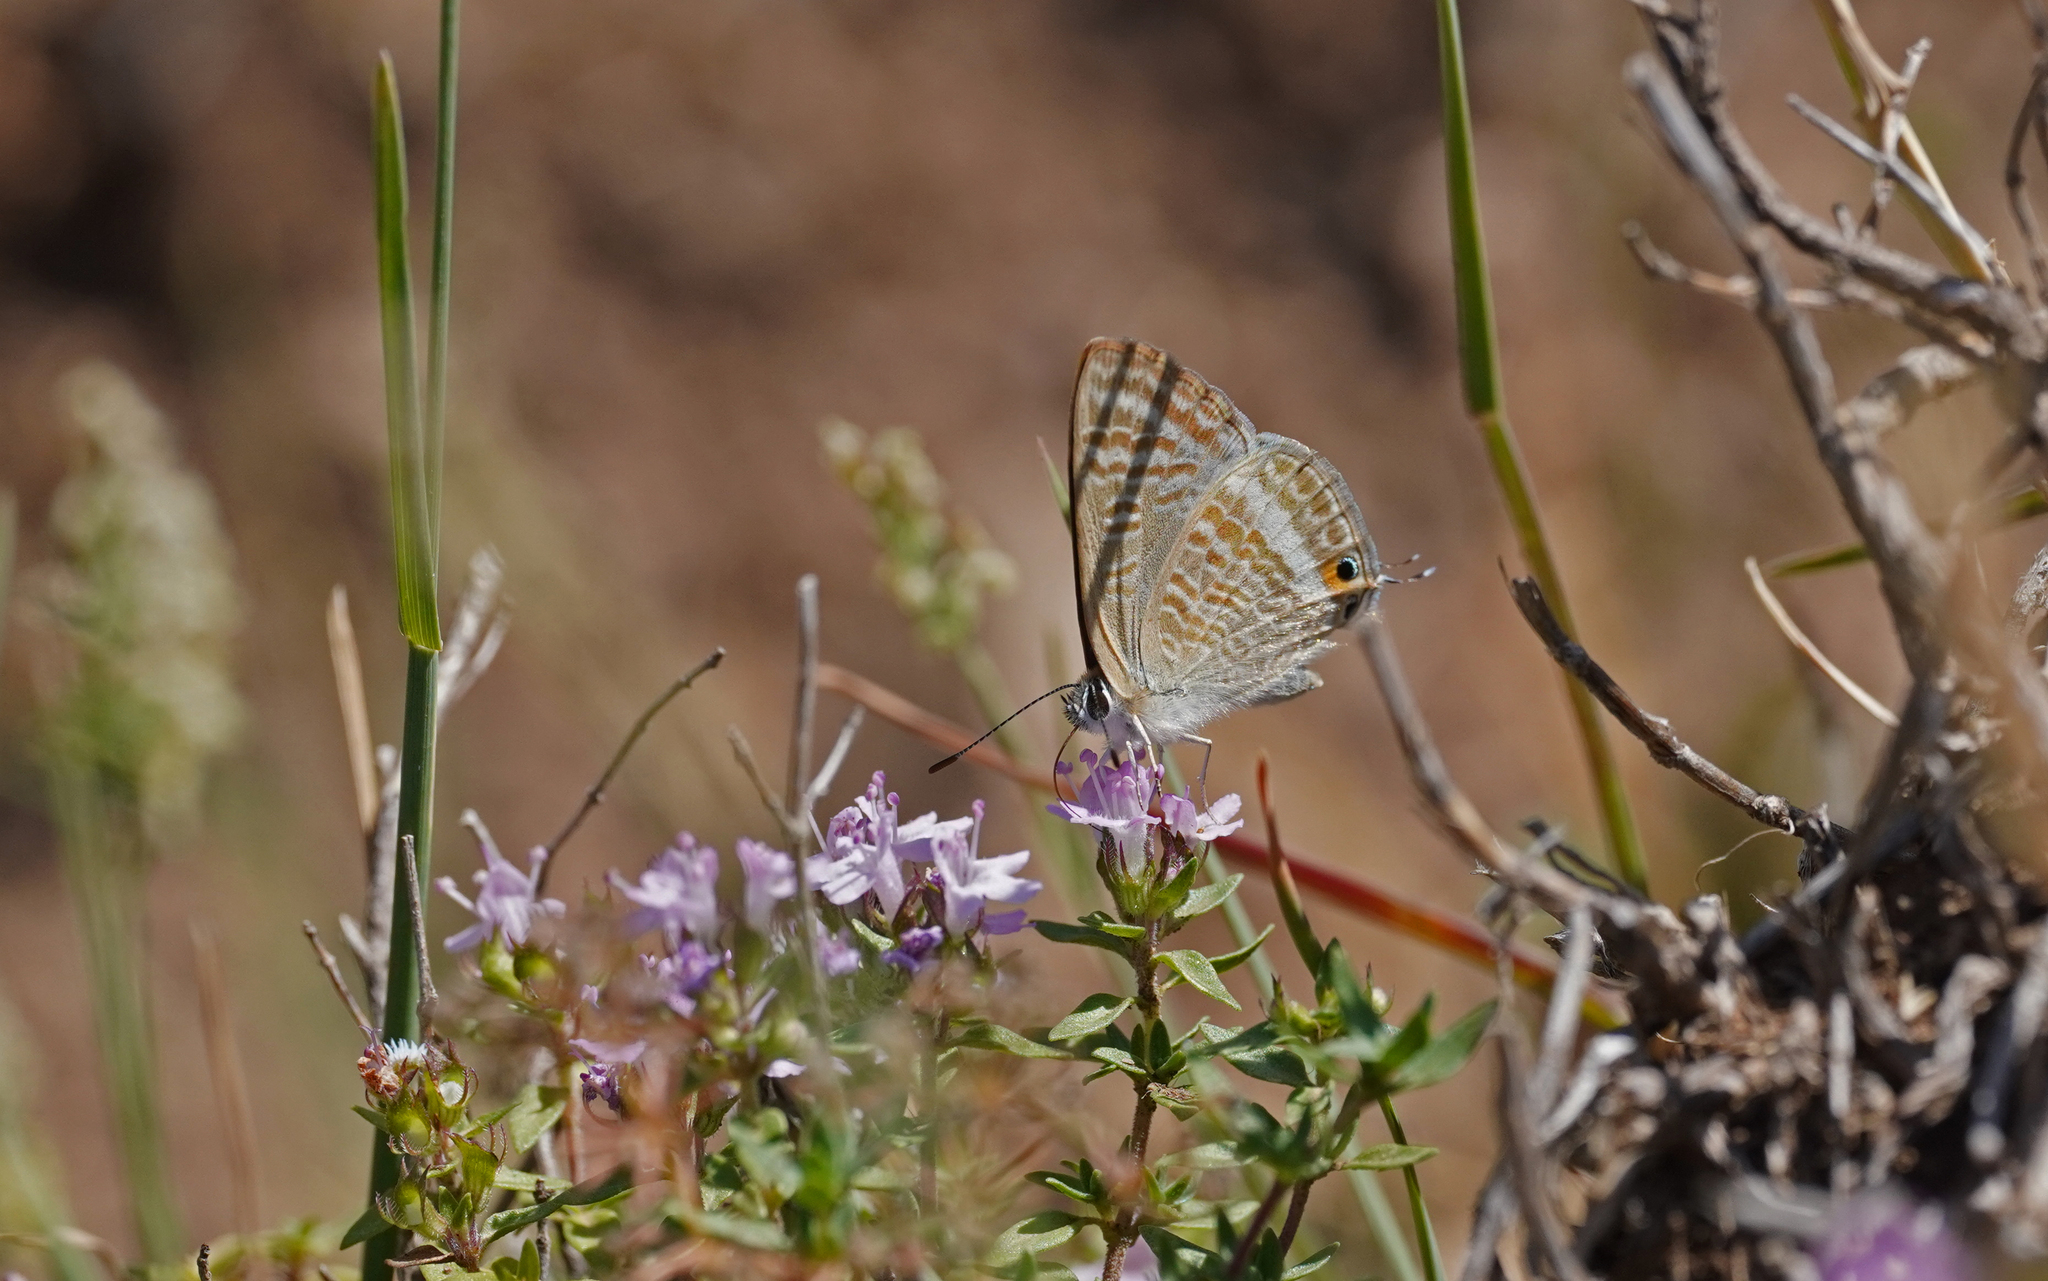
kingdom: Animalia
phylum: Arthropoda
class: Insecta
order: Lepidoptera
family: Lycaenidae
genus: Lampides
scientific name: Lampides boeticus
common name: Long-tailed blue
